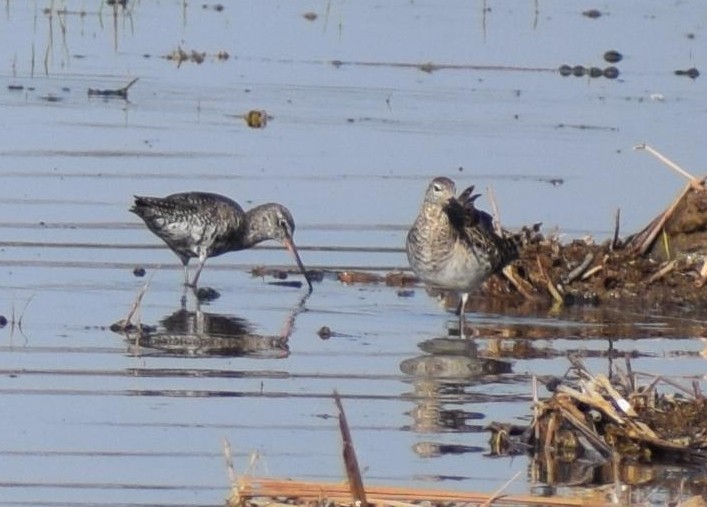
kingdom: Animalia
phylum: Chordata
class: Aves
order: Charadriiformes
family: Scolopacidae
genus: Tringa
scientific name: Tringa erythropus
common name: Spotted redshank
